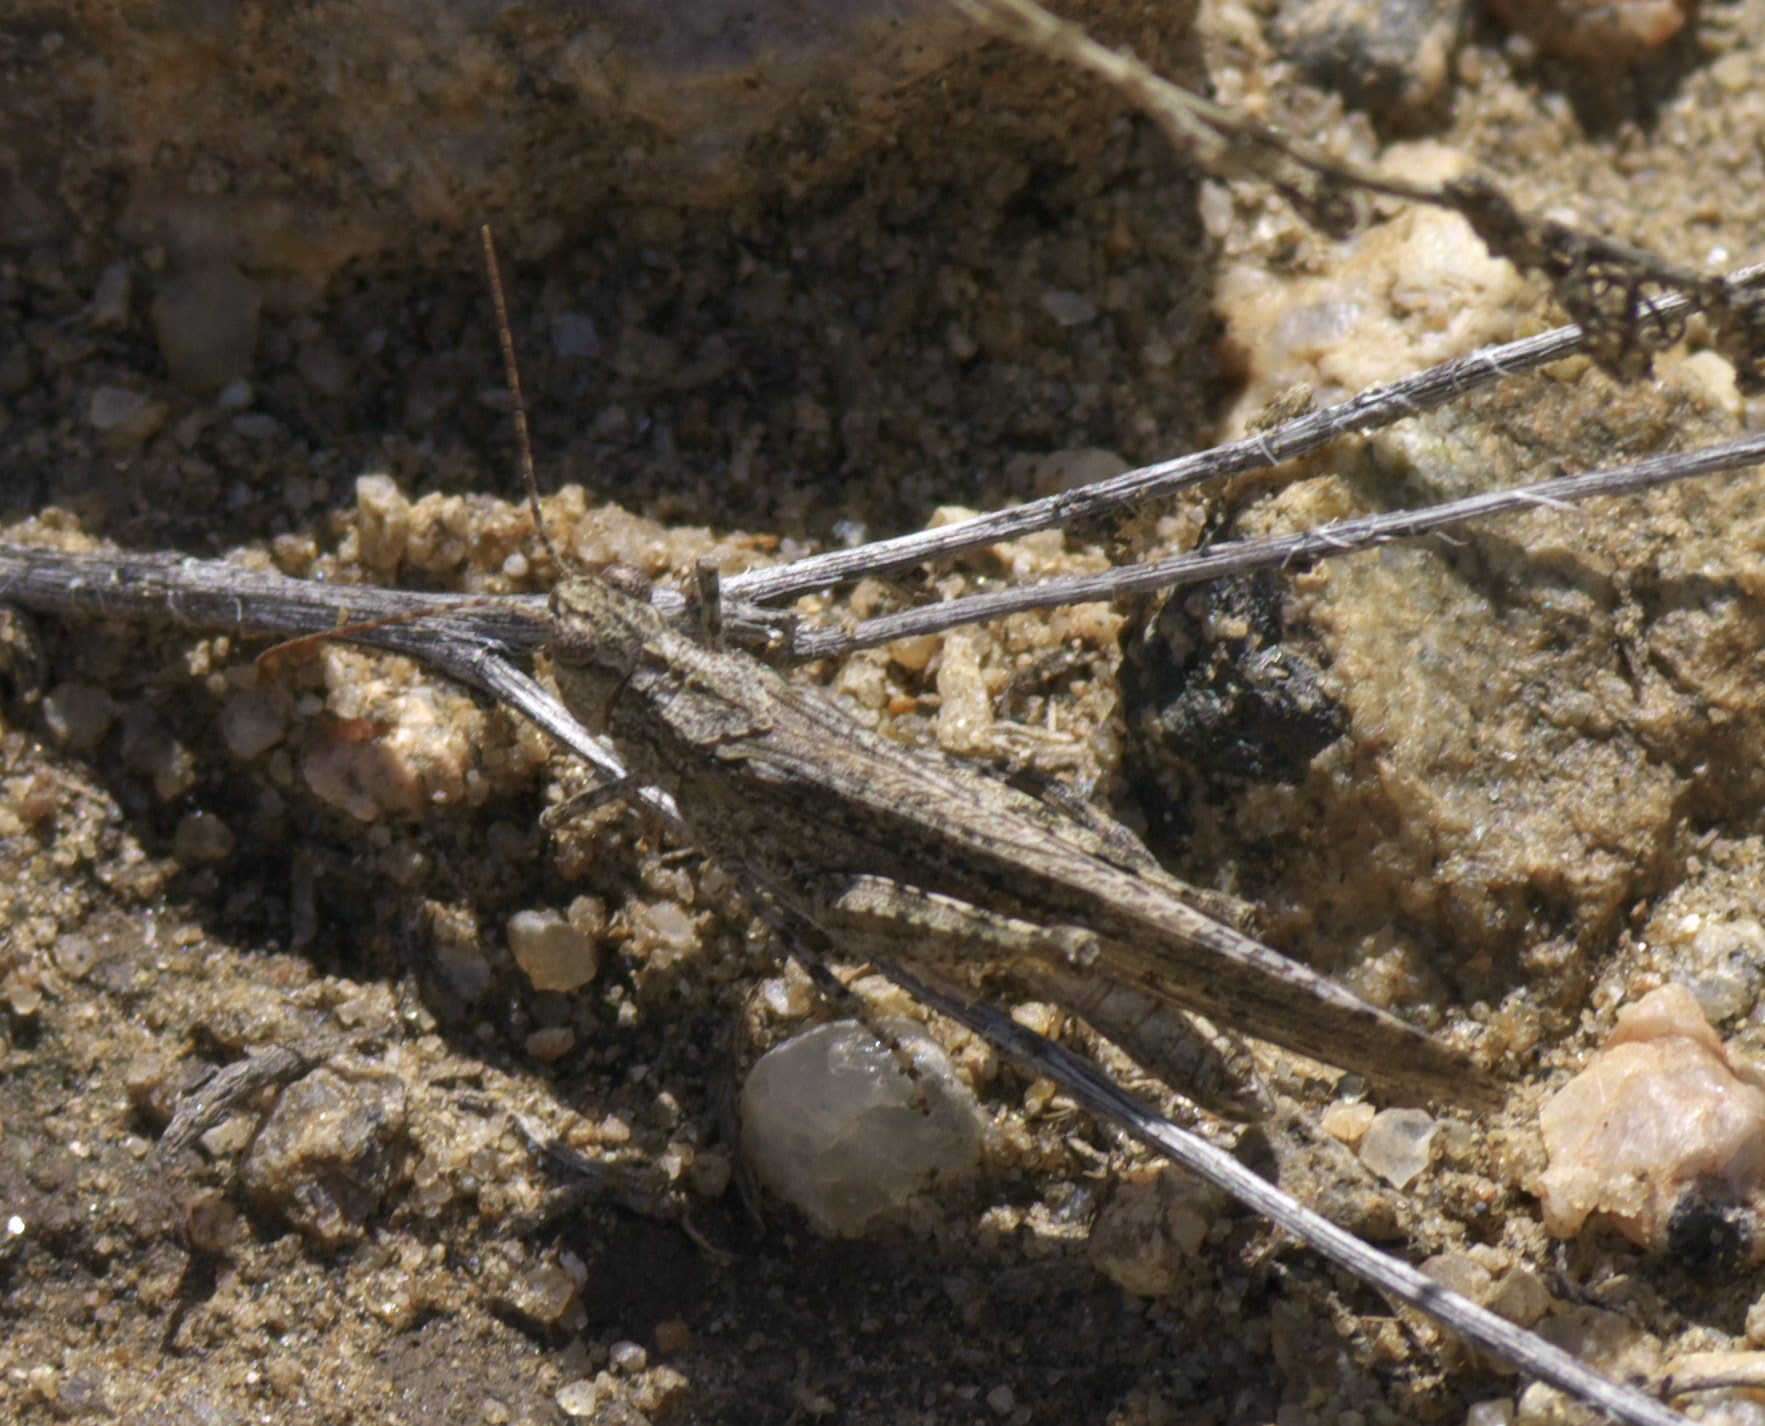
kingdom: Animalia
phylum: Arthropoda
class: Insecta
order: Orthoptera
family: Acrididae
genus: Trimerotropis
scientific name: Trimerotropis gracilis
